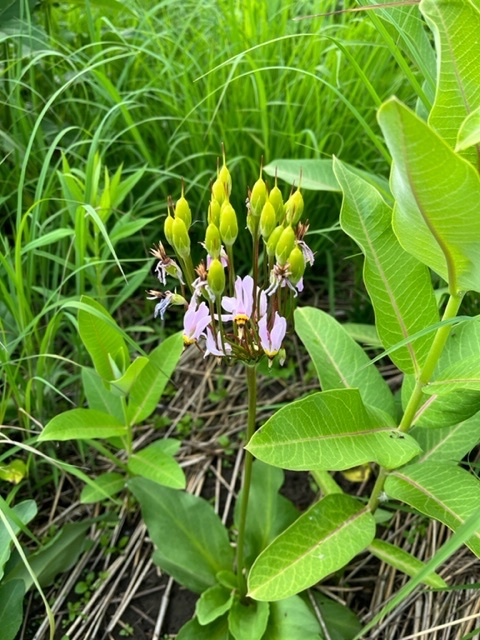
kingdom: Plantae
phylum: Tracheophyta
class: Magnoliopsida
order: Ericales
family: Primulaceae
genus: Dodecatheon
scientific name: Dodecatheon meadia
